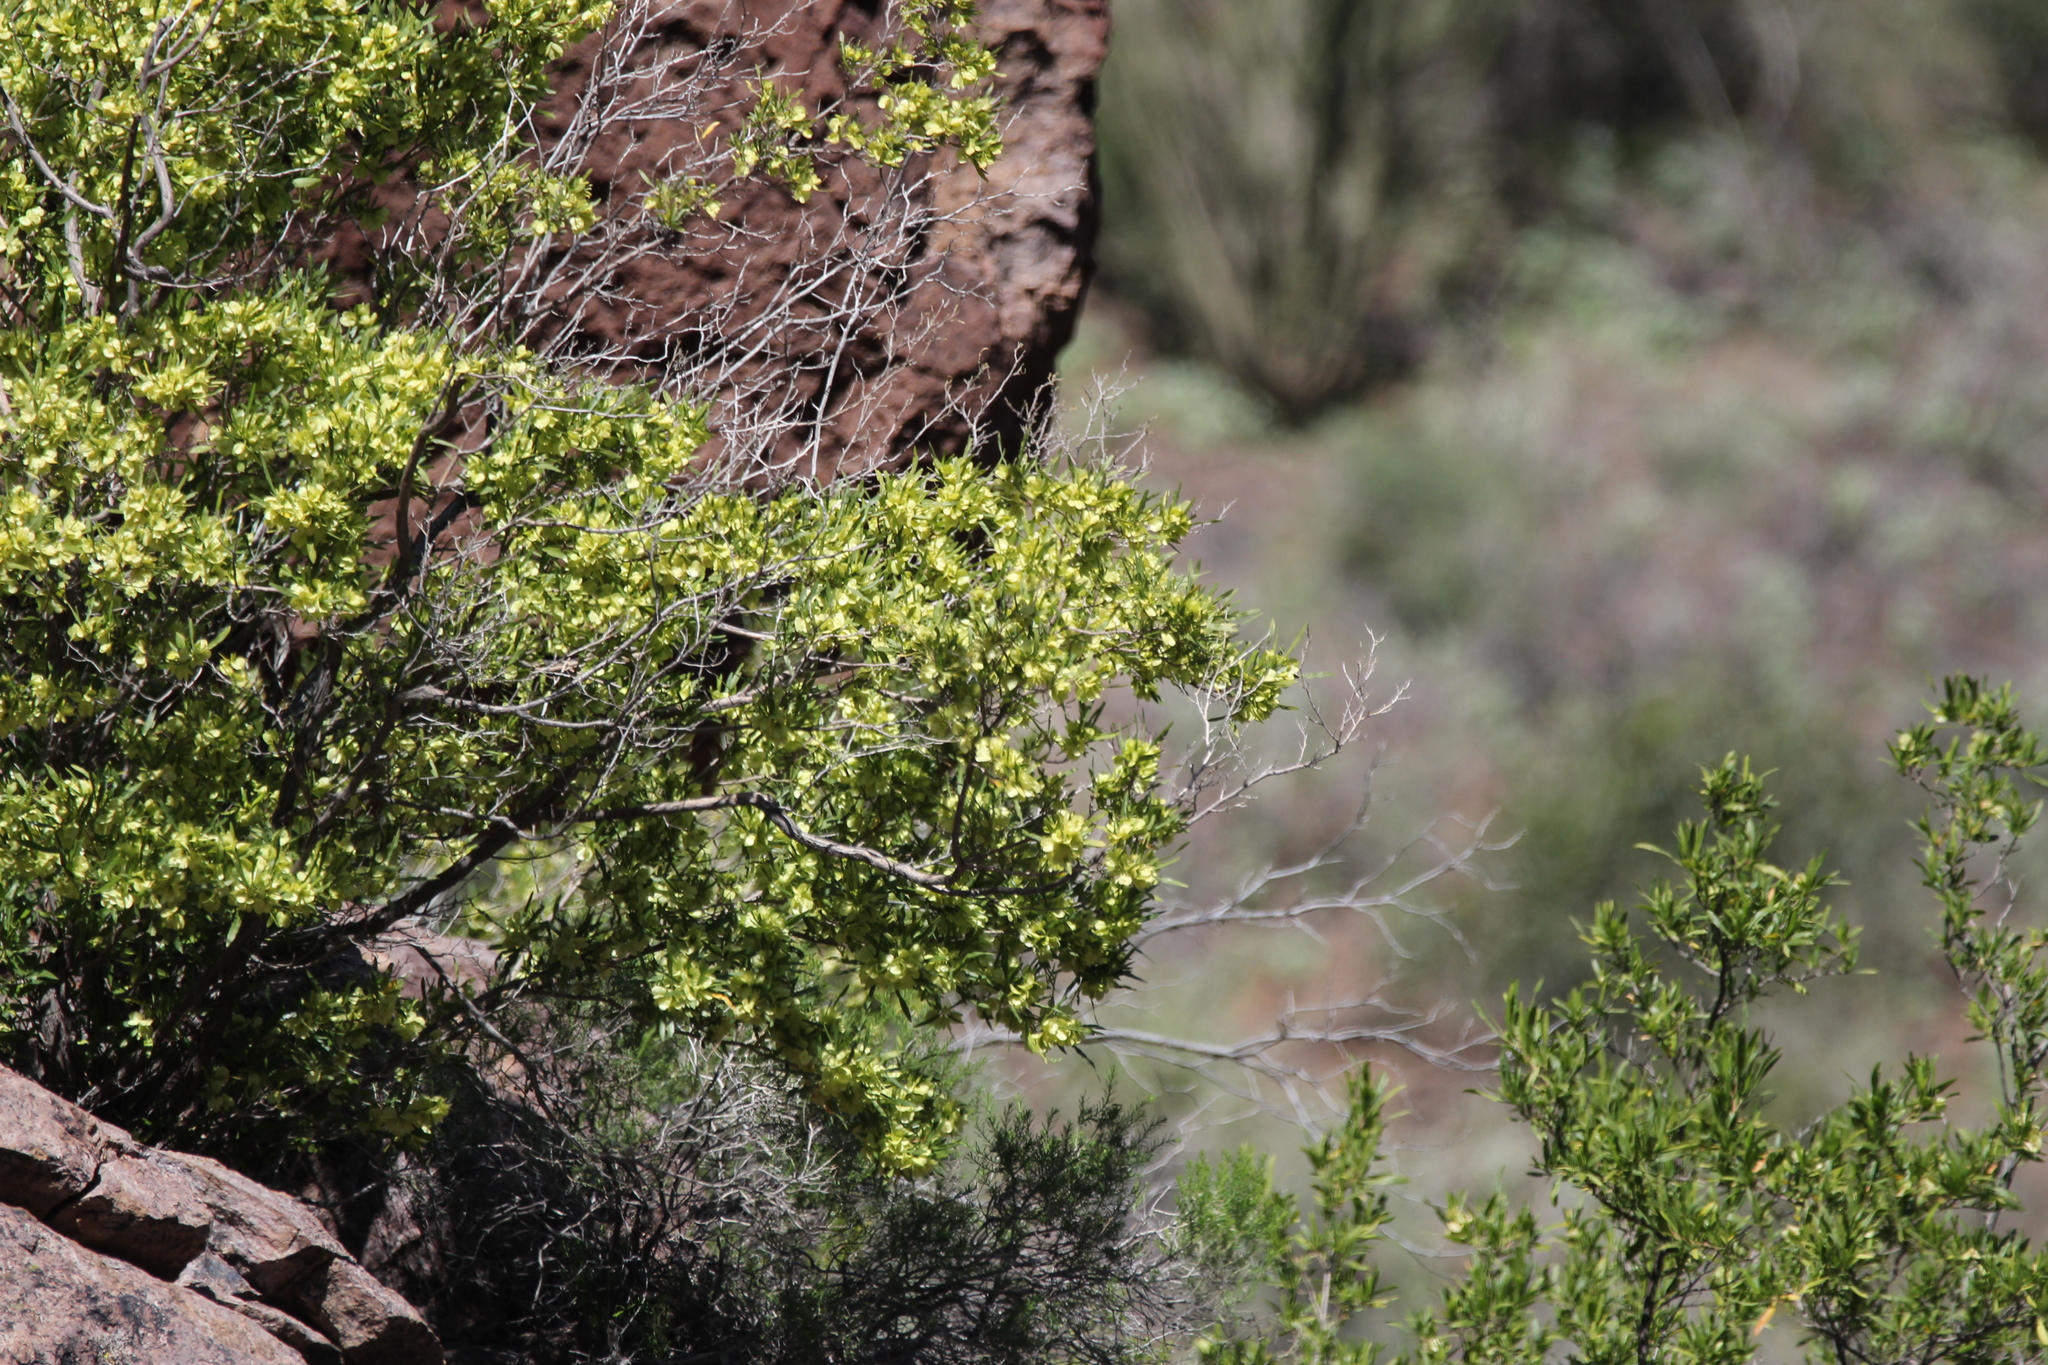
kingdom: Plantae
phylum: Tracheophyta
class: Magnoliopsida
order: Sapindales
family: Sapindaceae
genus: Dodonaea
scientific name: Dodonaea viscosa
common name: Hopbush
